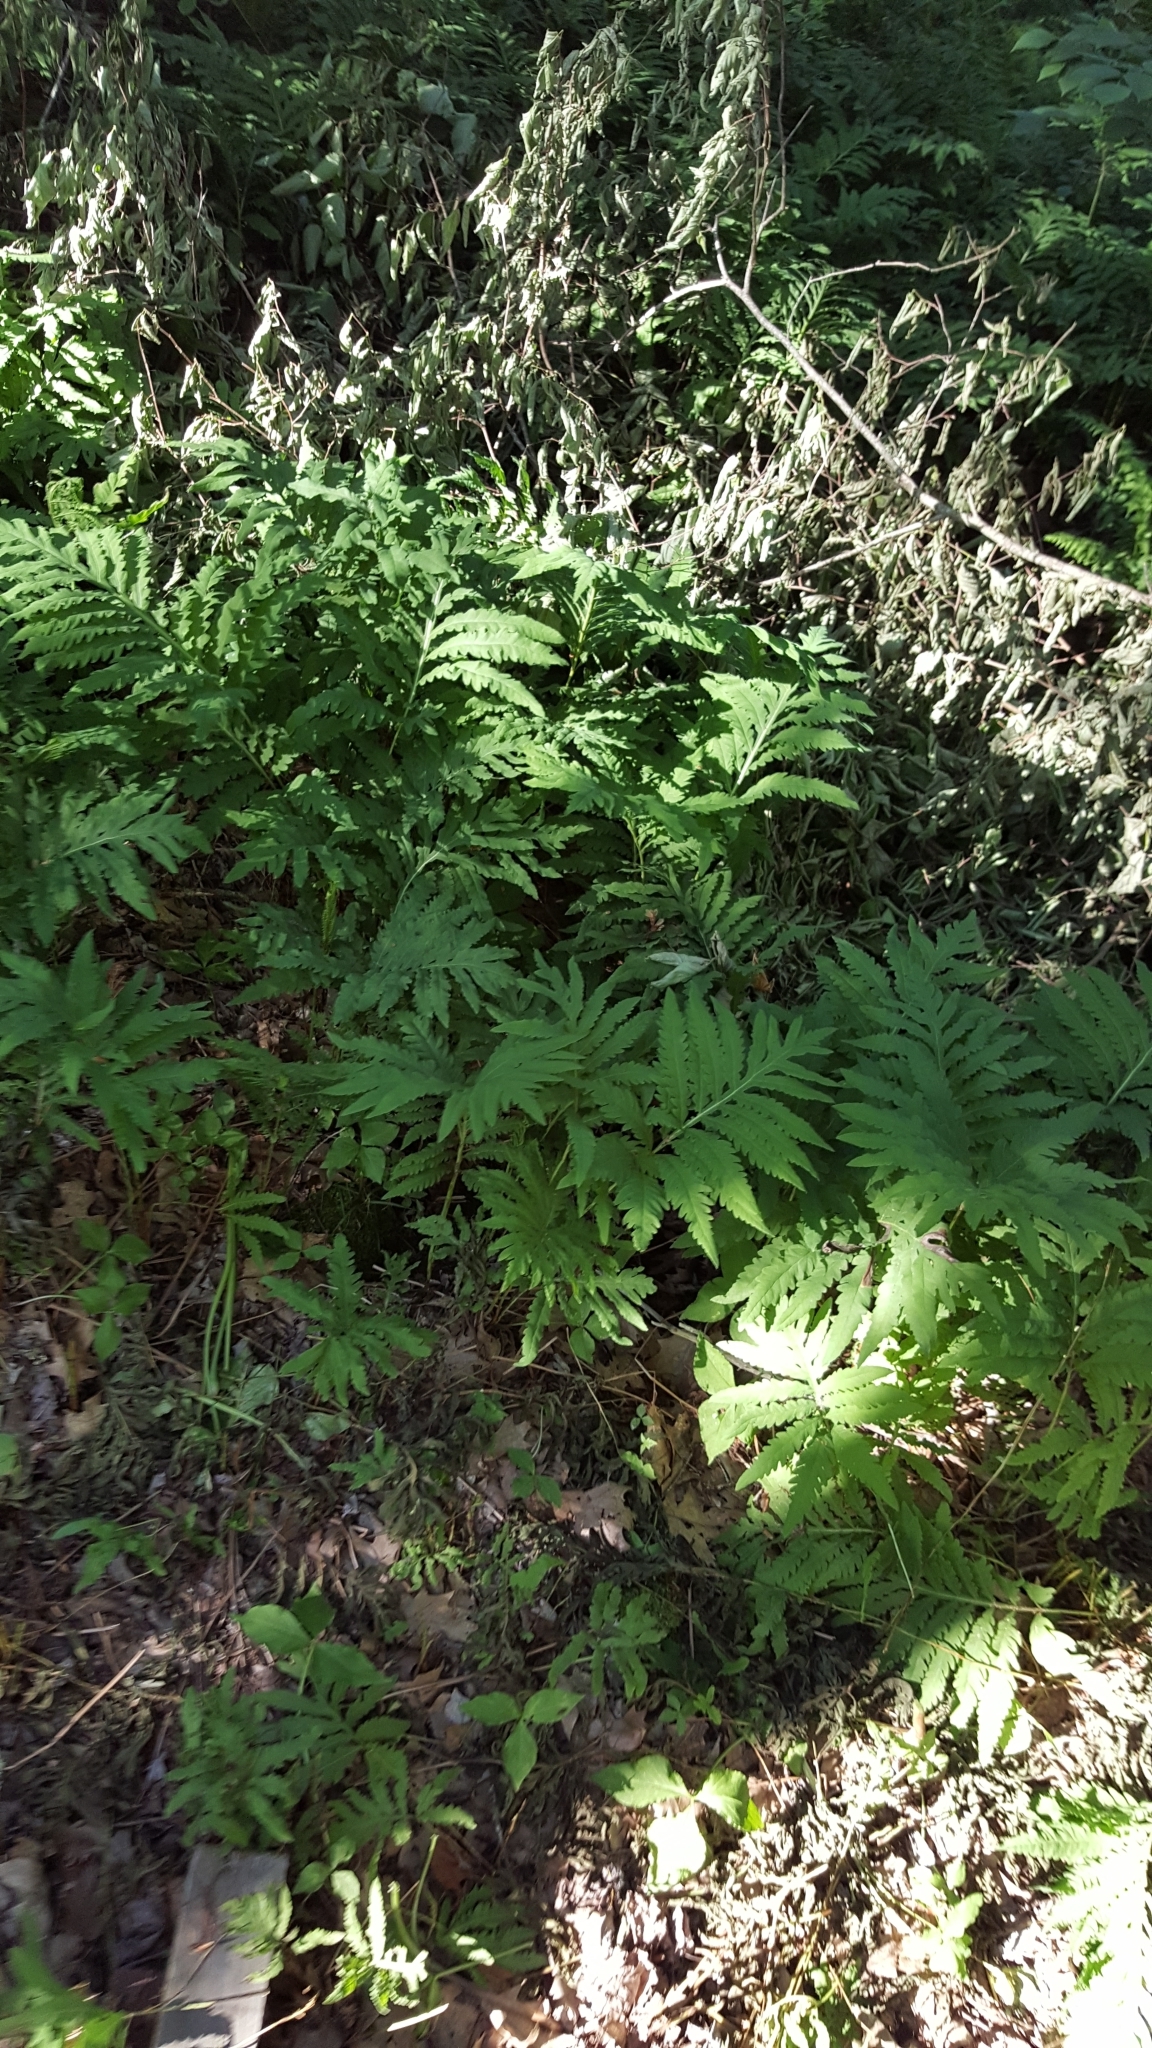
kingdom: Plantae
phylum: Tracheophyta
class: Polypodiopsida
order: Polypodiales
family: Onocleaceae
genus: Onoclea
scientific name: Onoclea sensibilis
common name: Sensitive fern
